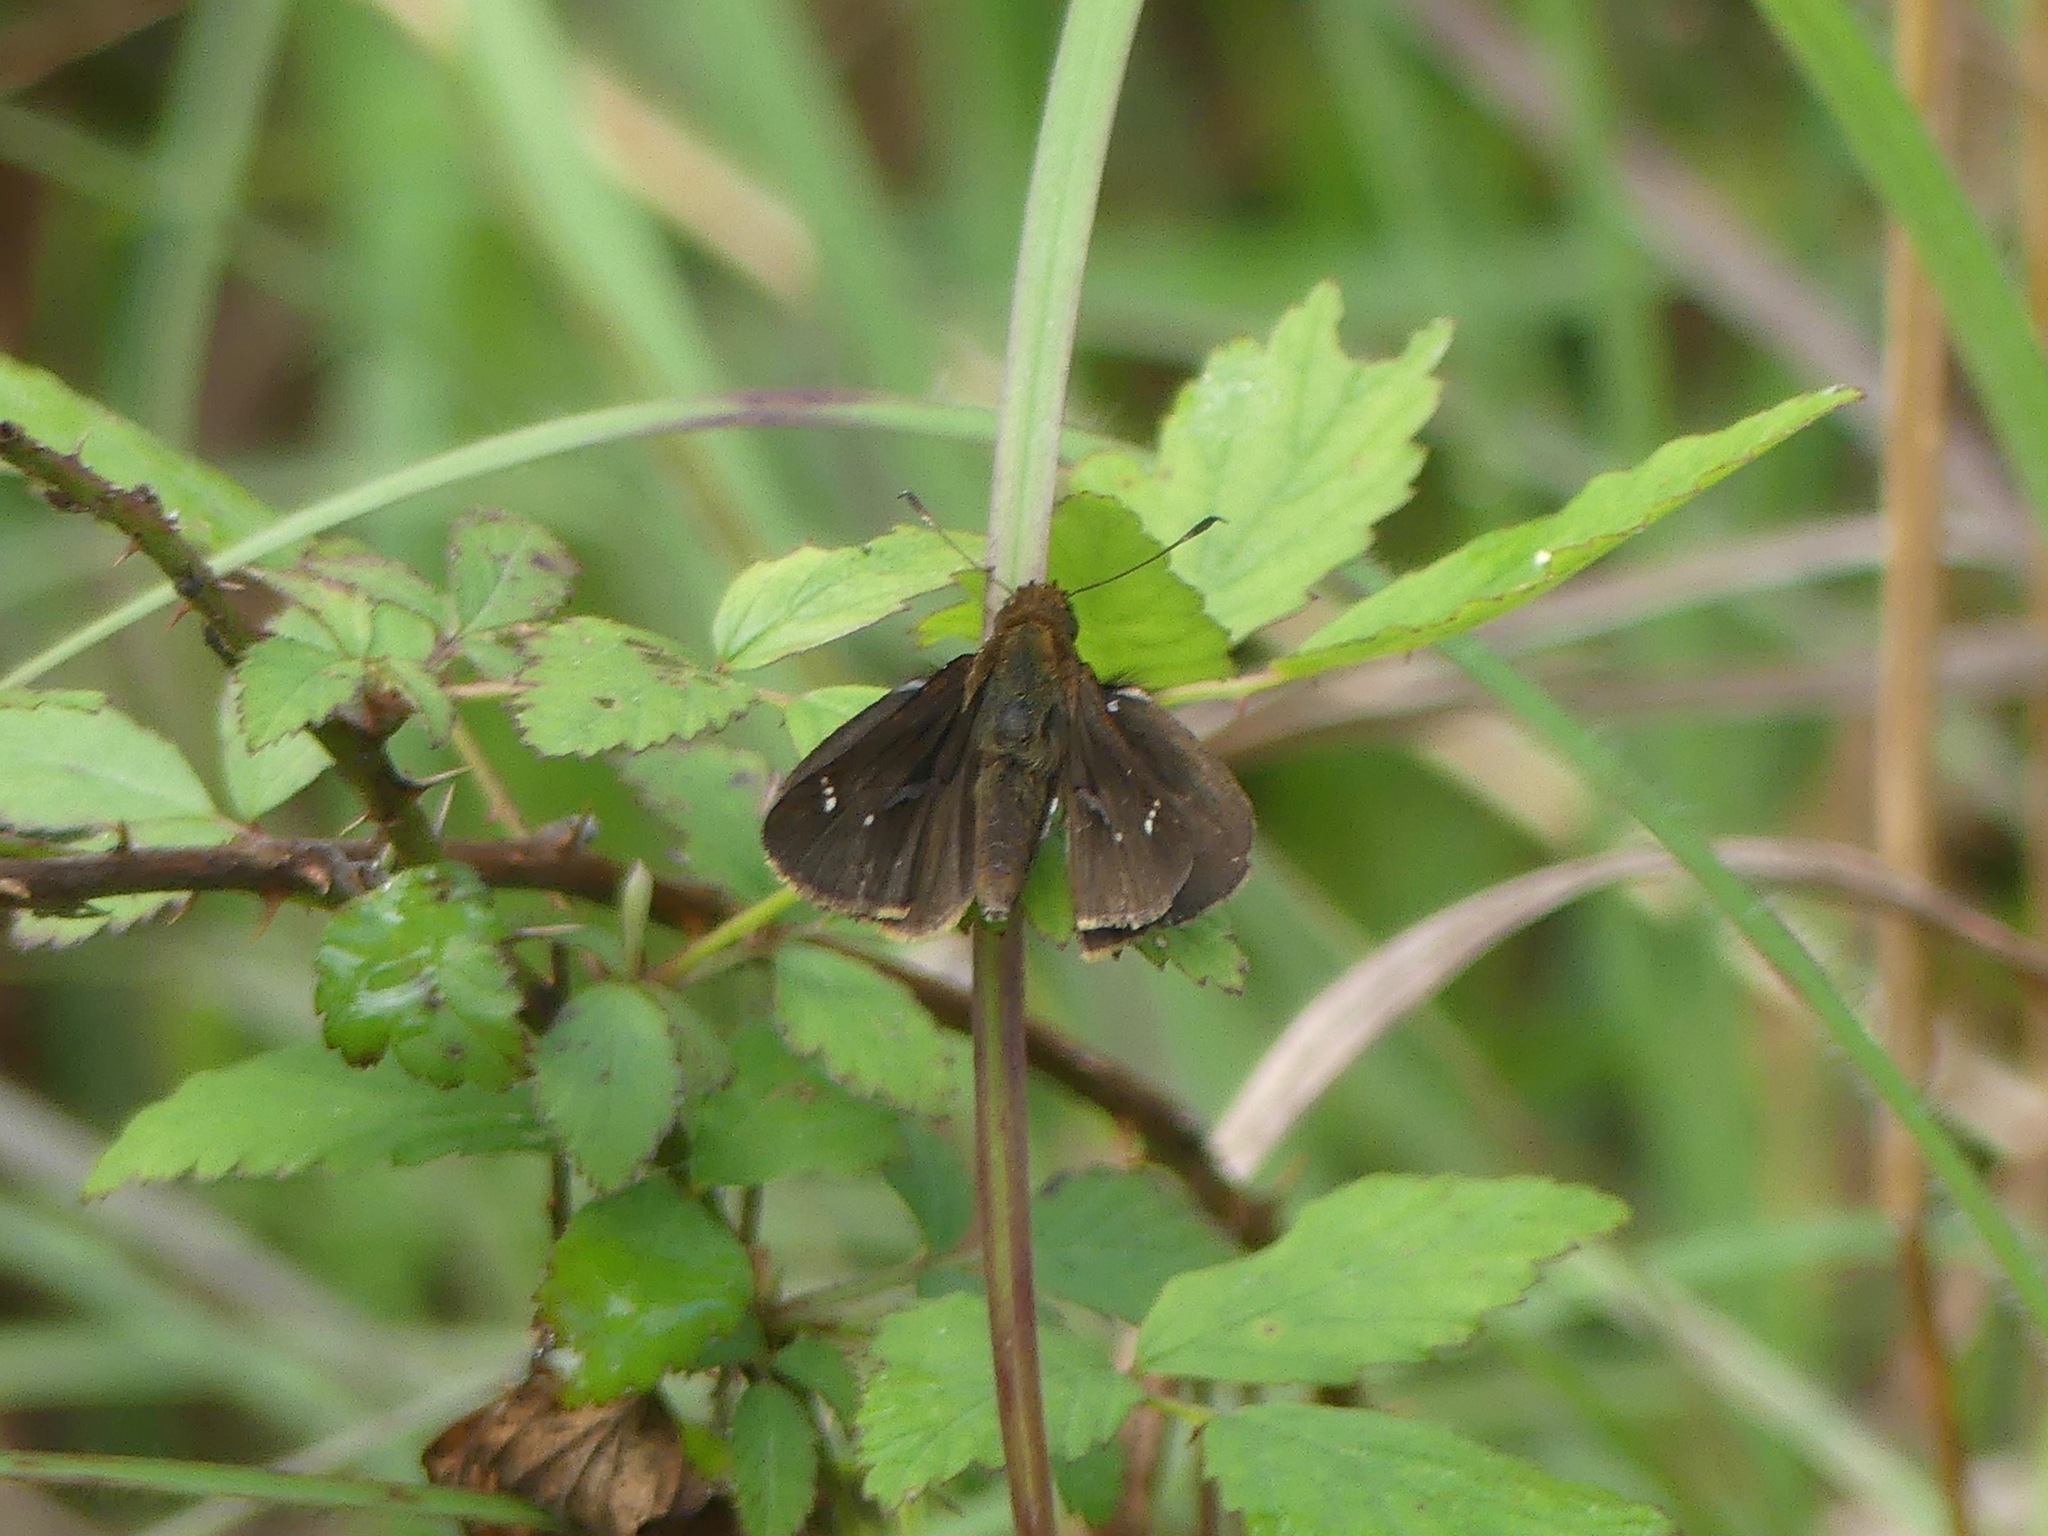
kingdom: Animalia
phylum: Arthropoda
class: Insecta
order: Lepidoptera
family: Hesperiidae
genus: Lerema
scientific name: Lerema accius
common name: Clouded skipper
